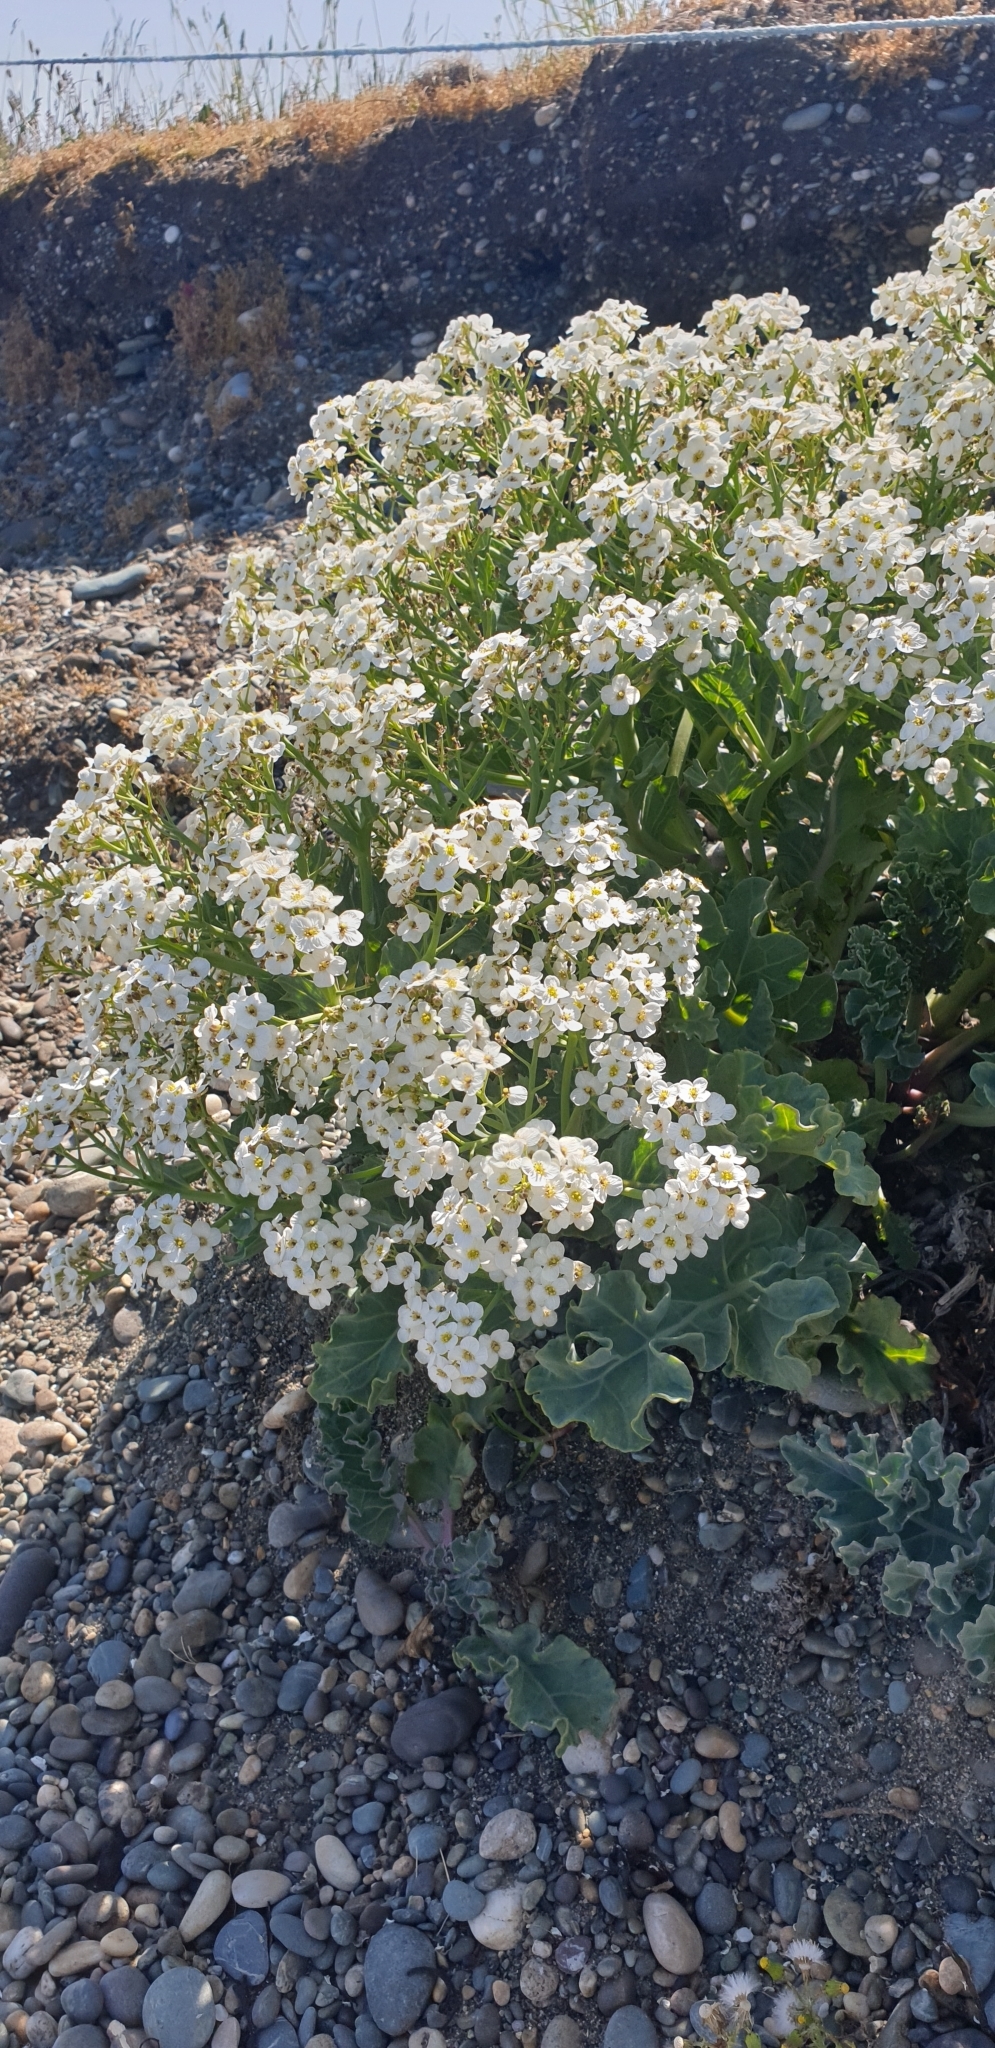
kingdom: Plantae
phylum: Tracheophyta
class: Magnoliopsida
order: Brassicales
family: Brassicaceae
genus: Crambe
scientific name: Crambe maritima
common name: Sea-kale
